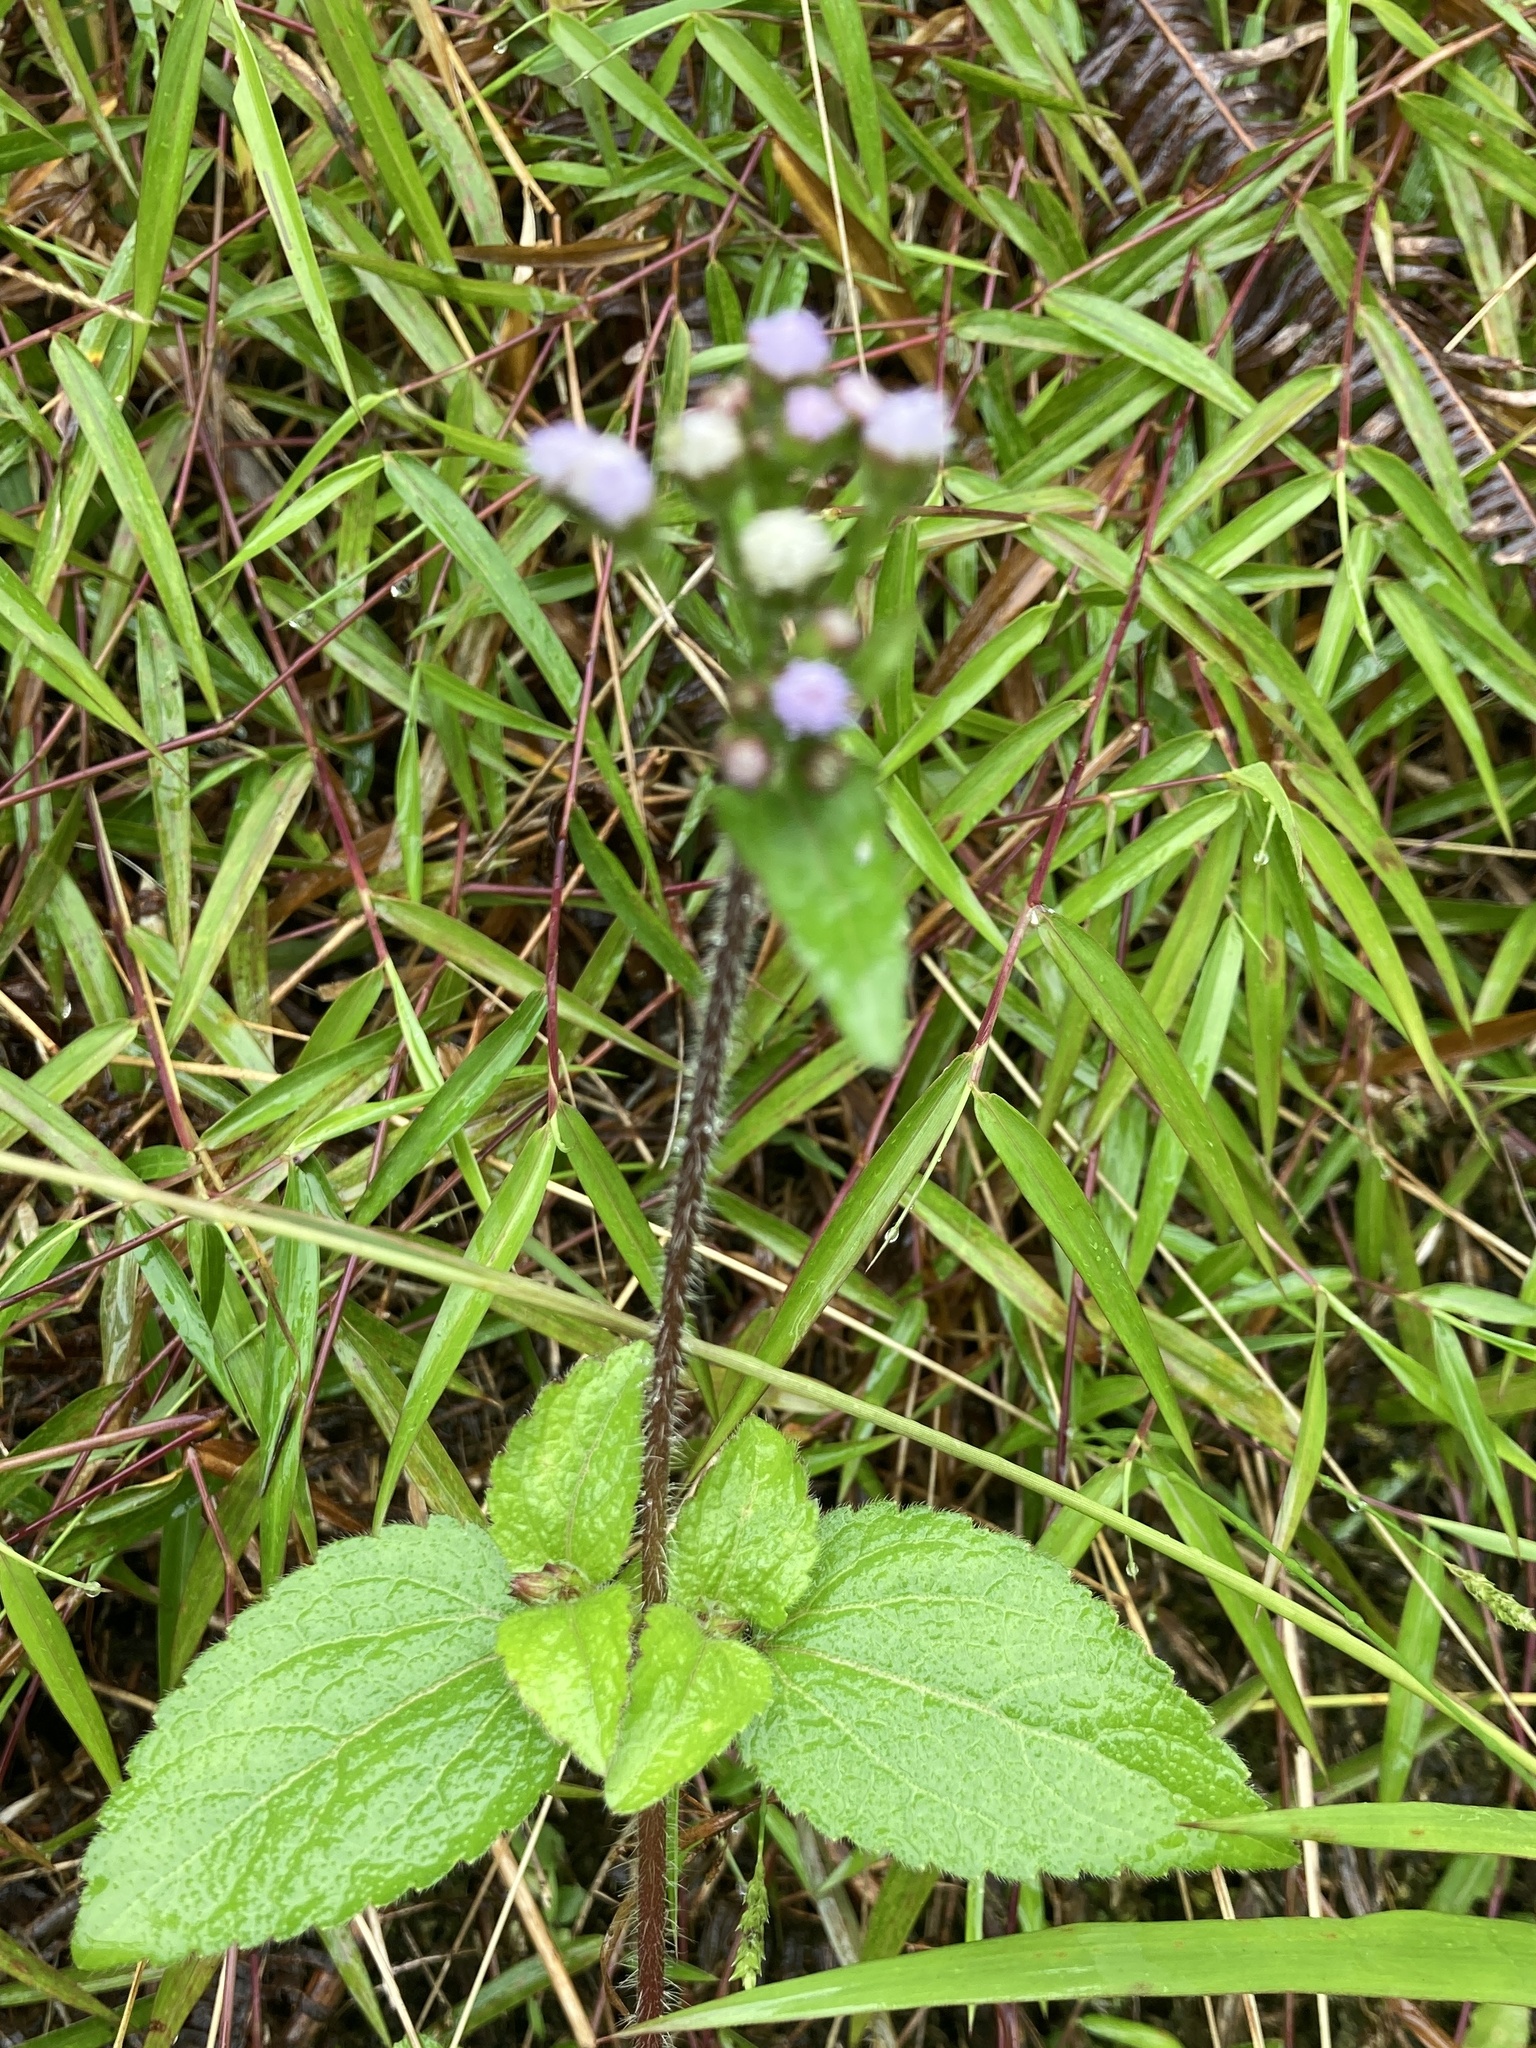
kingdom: Plantae
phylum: Tracheophyta
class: Magnoliopsida
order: Asterales
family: Asteraceae
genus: Ageratum
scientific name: Ageratum conyzoides
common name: Tropical whiteweed
